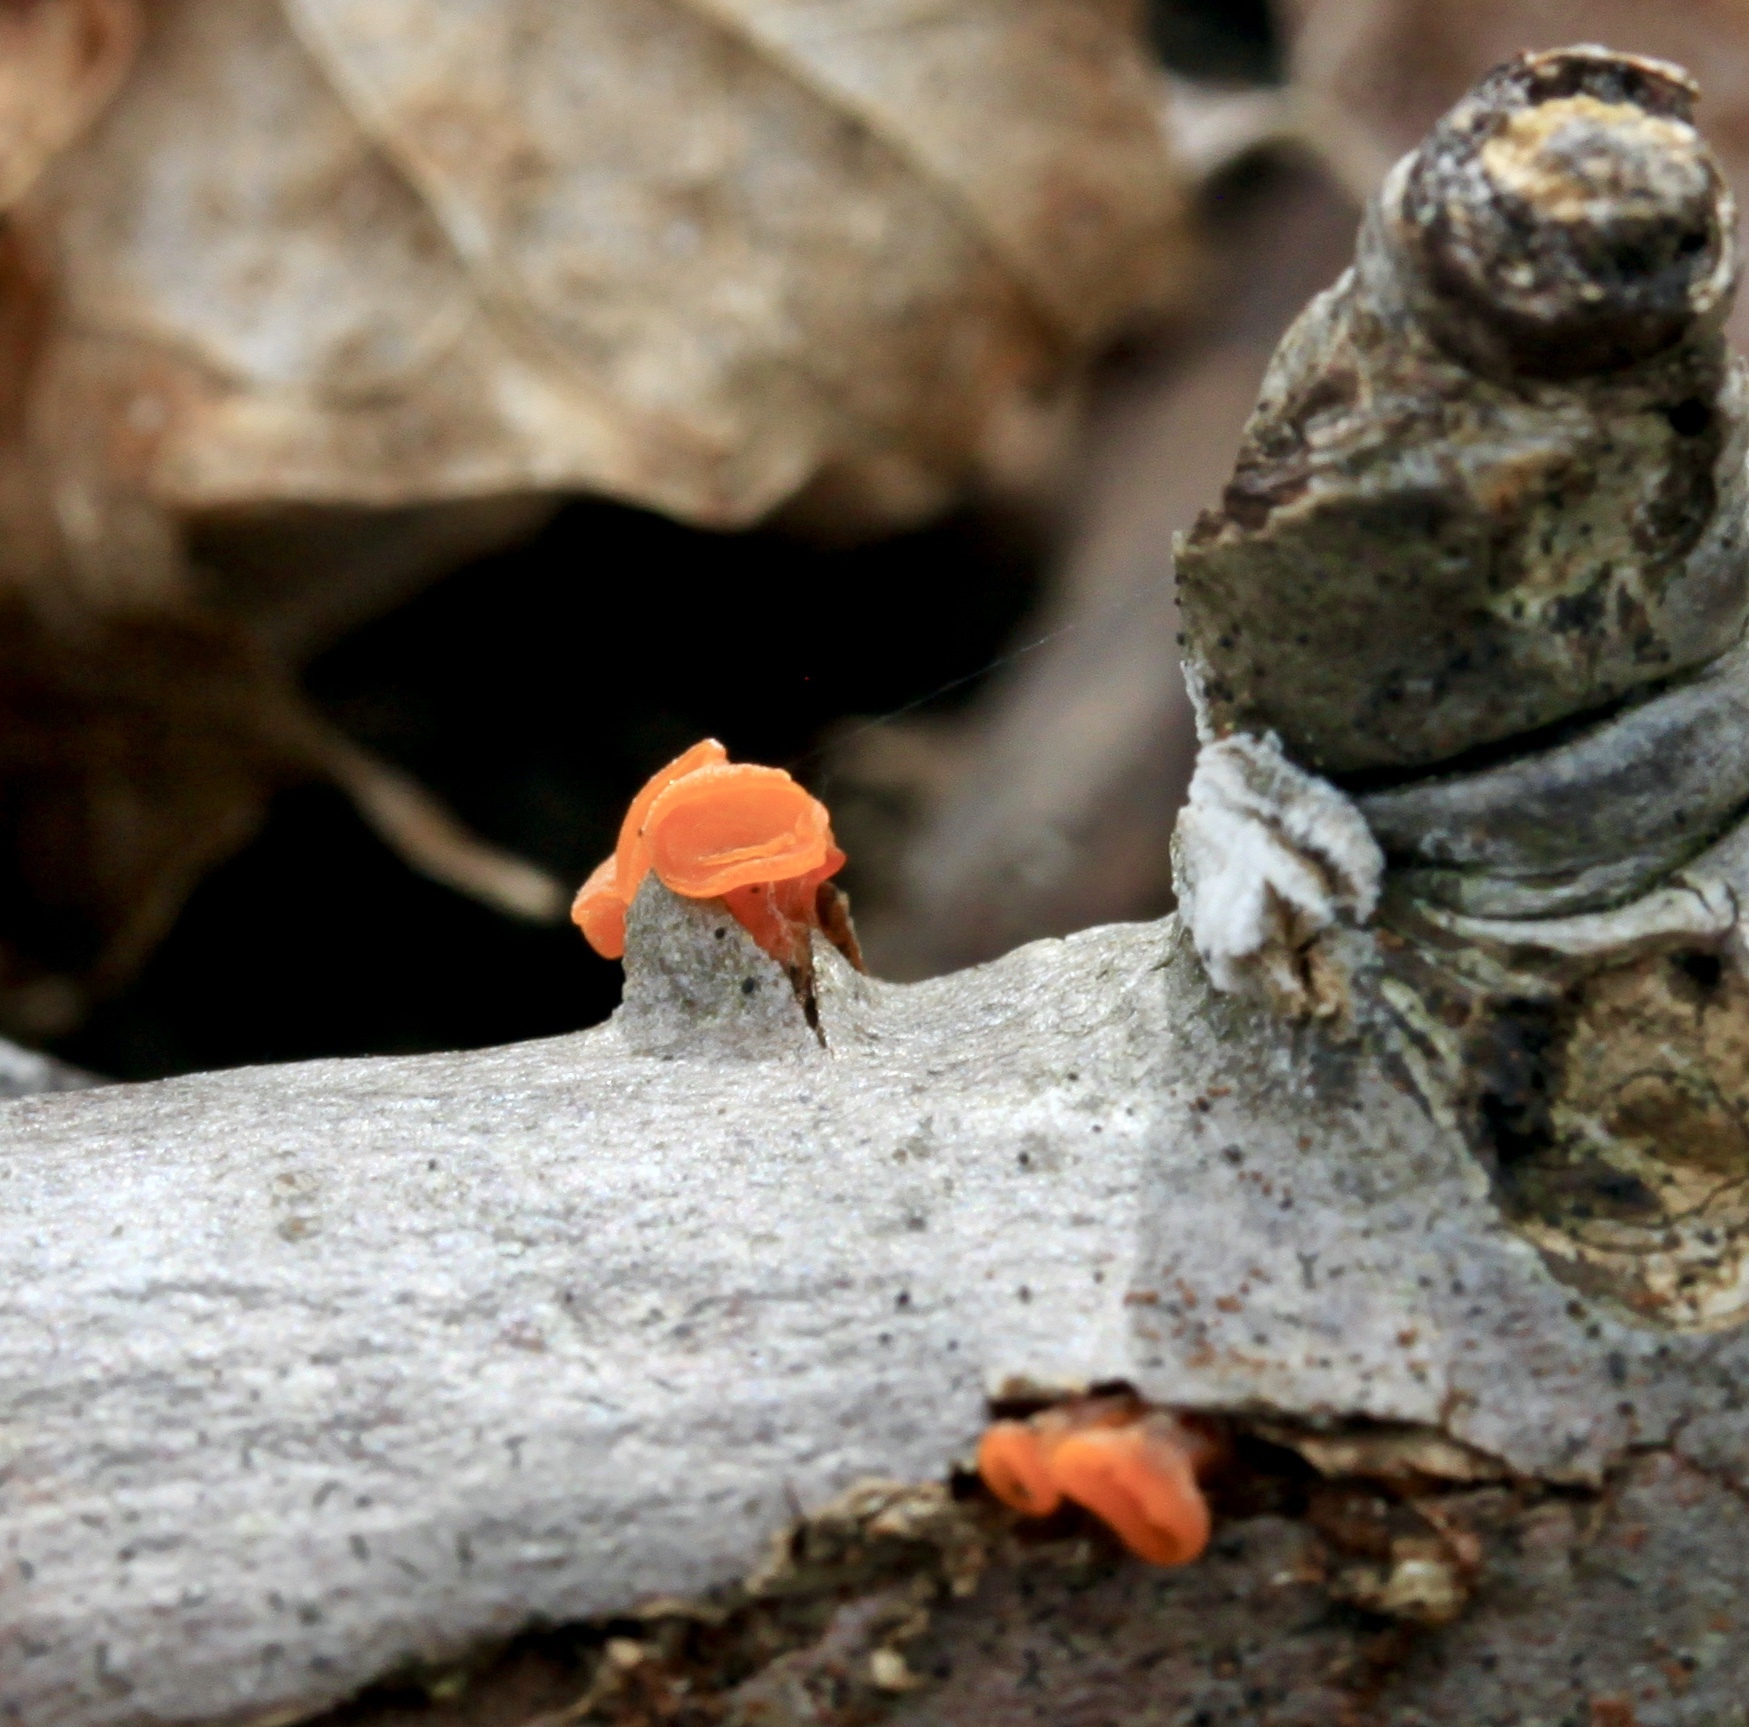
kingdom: Fungi
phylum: Basidiomycota
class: Dacrymycetes
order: Dacrymycetales
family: Dacrymycetaceae
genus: Guepiniopsis
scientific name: Guepiniopsis buccina
